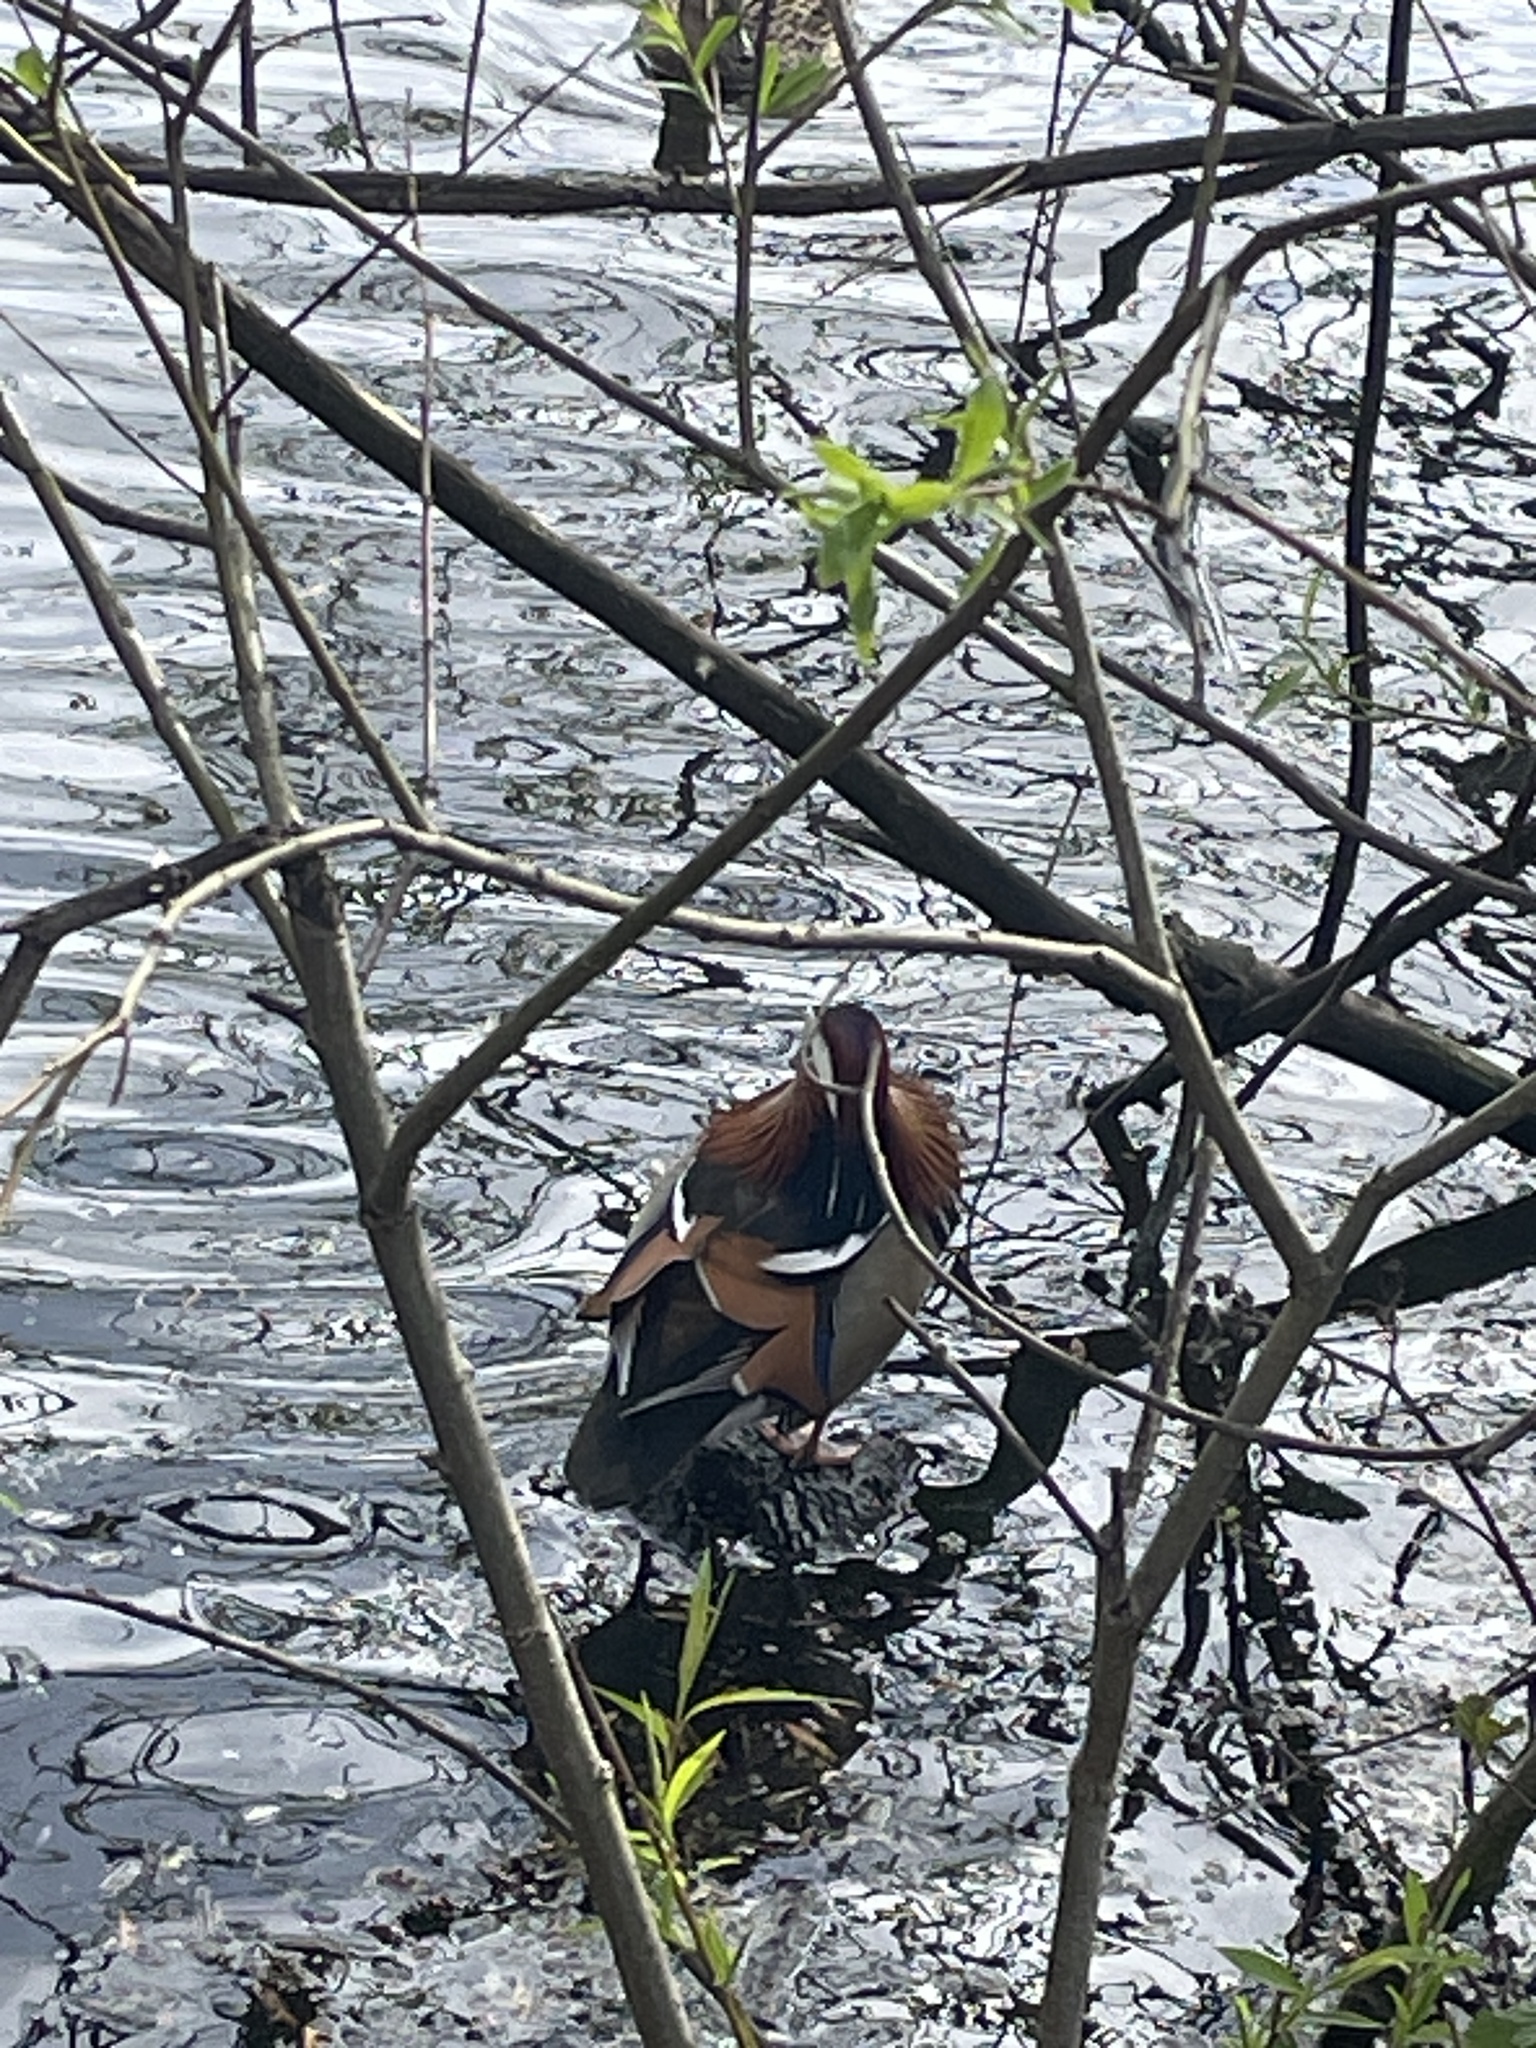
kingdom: Animalia
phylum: Chordata
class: Aves
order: Anseriformes
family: Anatidae
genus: Aix
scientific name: Aix galericulata
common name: Mandarin duck
